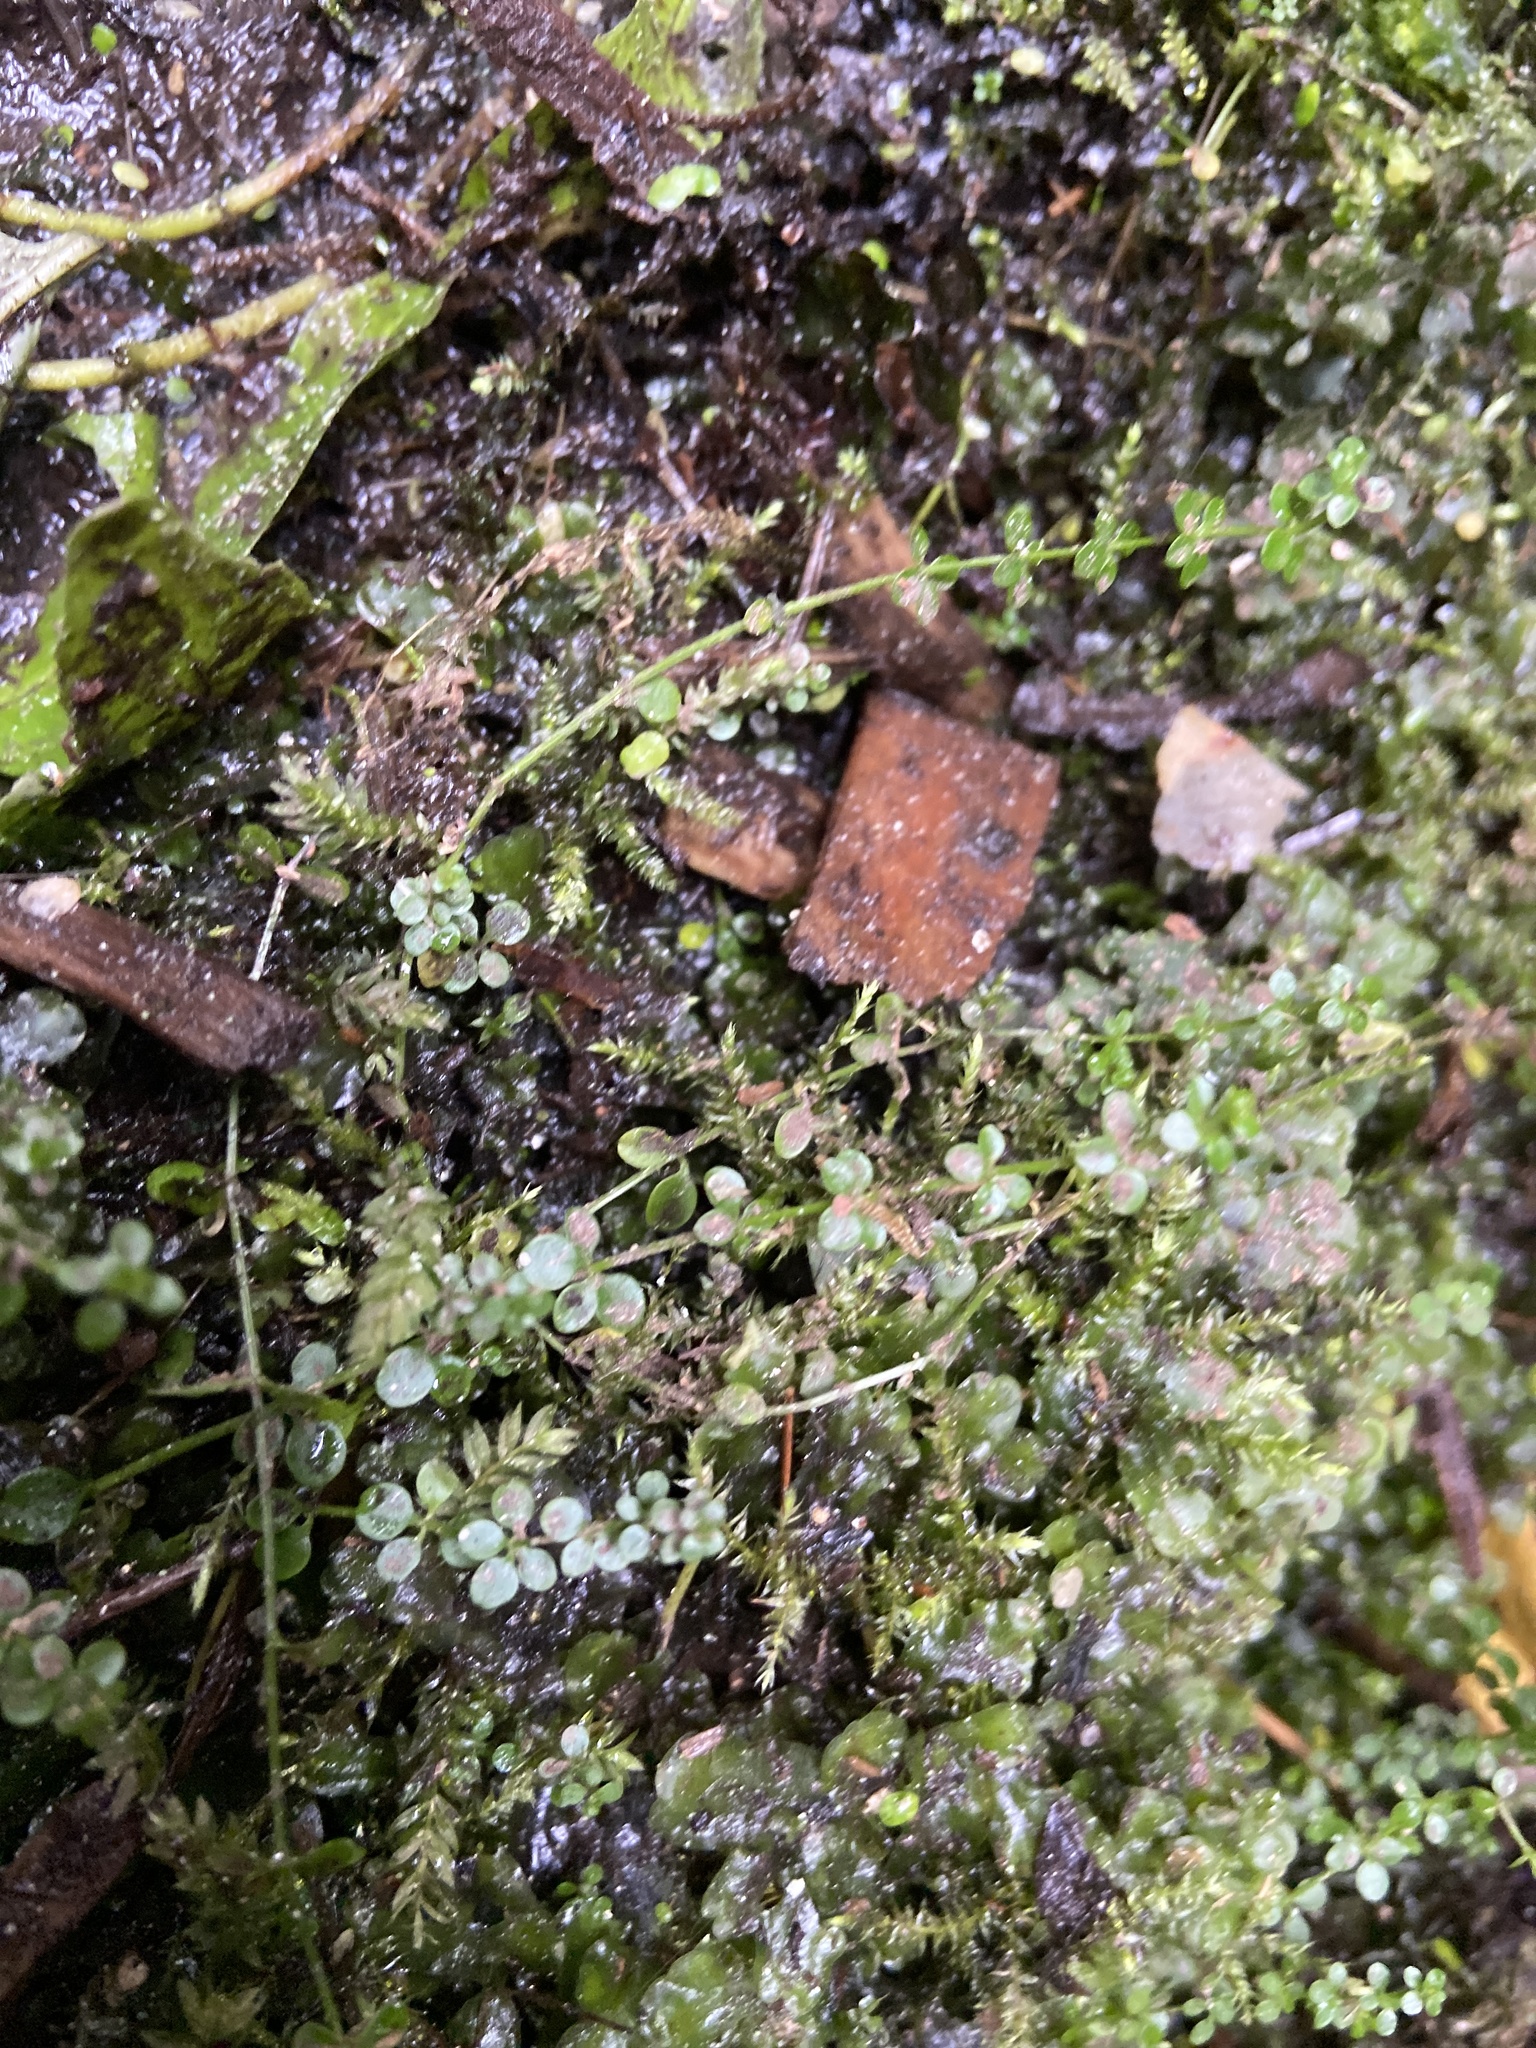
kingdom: Plantae
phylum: Tracheophyta
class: Magnoliopsida
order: Gentianales
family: Rubiaceae
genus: Galium
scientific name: Galium saxatile
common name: Heath bedstraw
